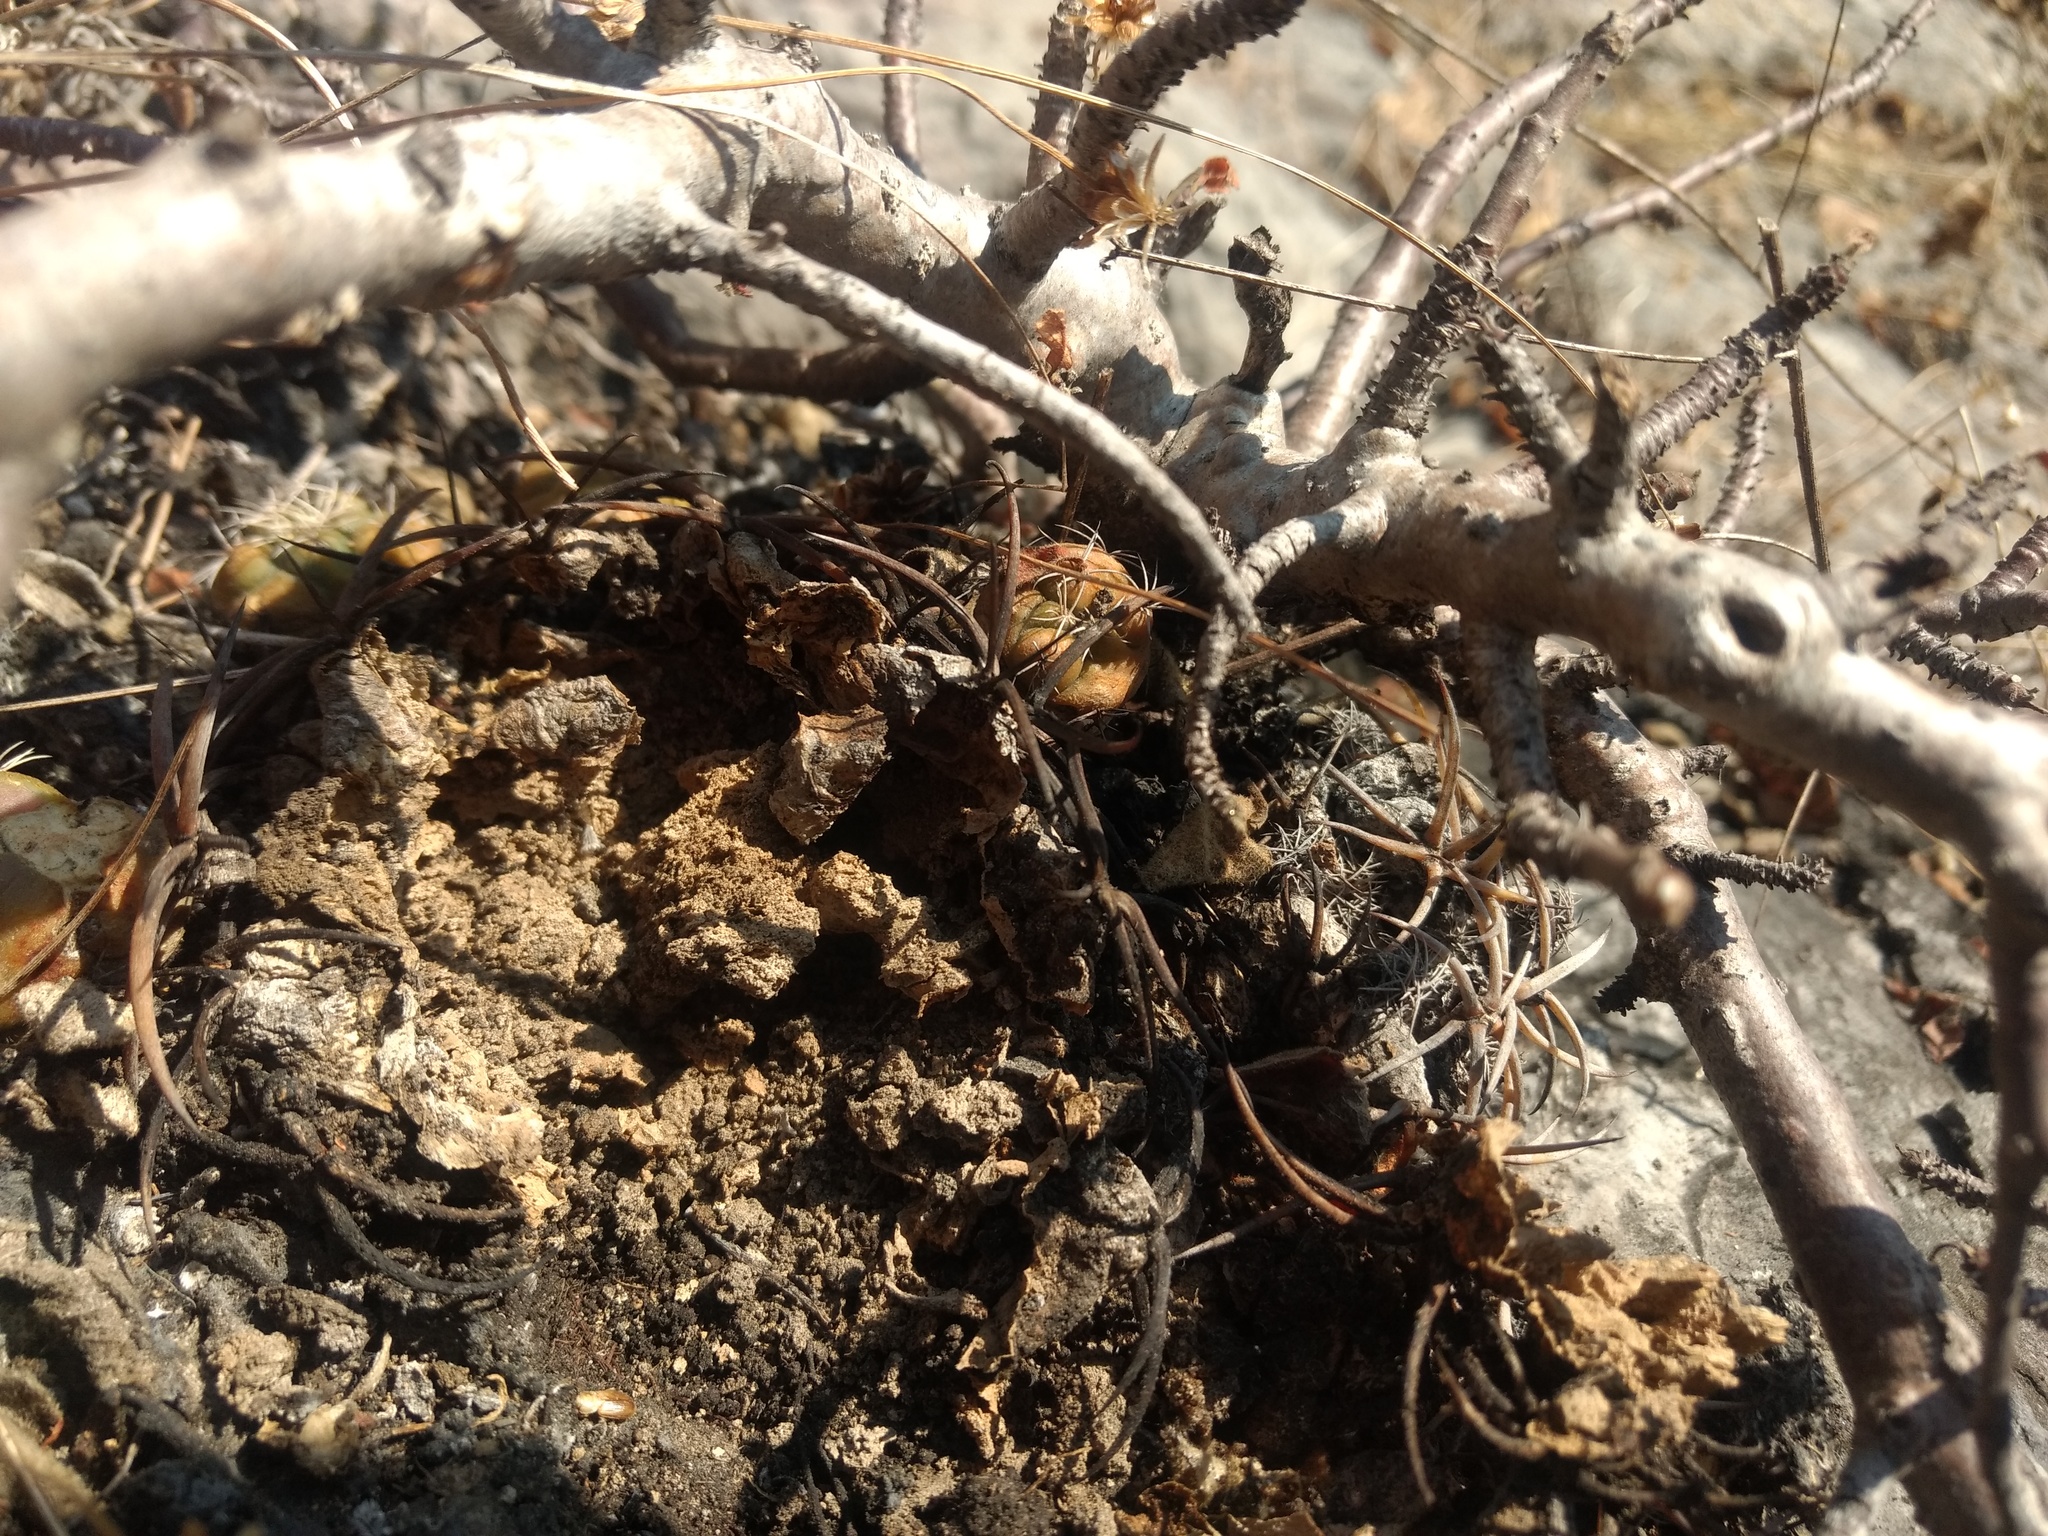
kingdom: Plantae
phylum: Tracheophyta
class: Magnoliopsida
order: Caryophyllales
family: Cactaceae
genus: Coryphantha
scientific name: Coryphantha elephantidens
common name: Elephant's tooth
